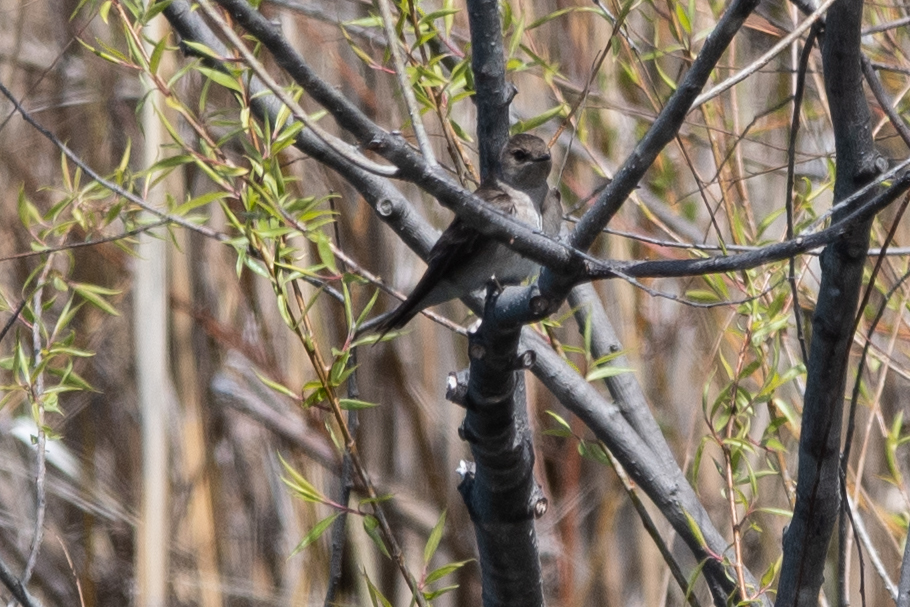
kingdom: Animalia
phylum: Chordata
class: Aves
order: Passeriformes
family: Hirundinidae
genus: Stelgidopteryx
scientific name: Stelgidopteryx serripennis
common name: Northern rough-winged swallow
